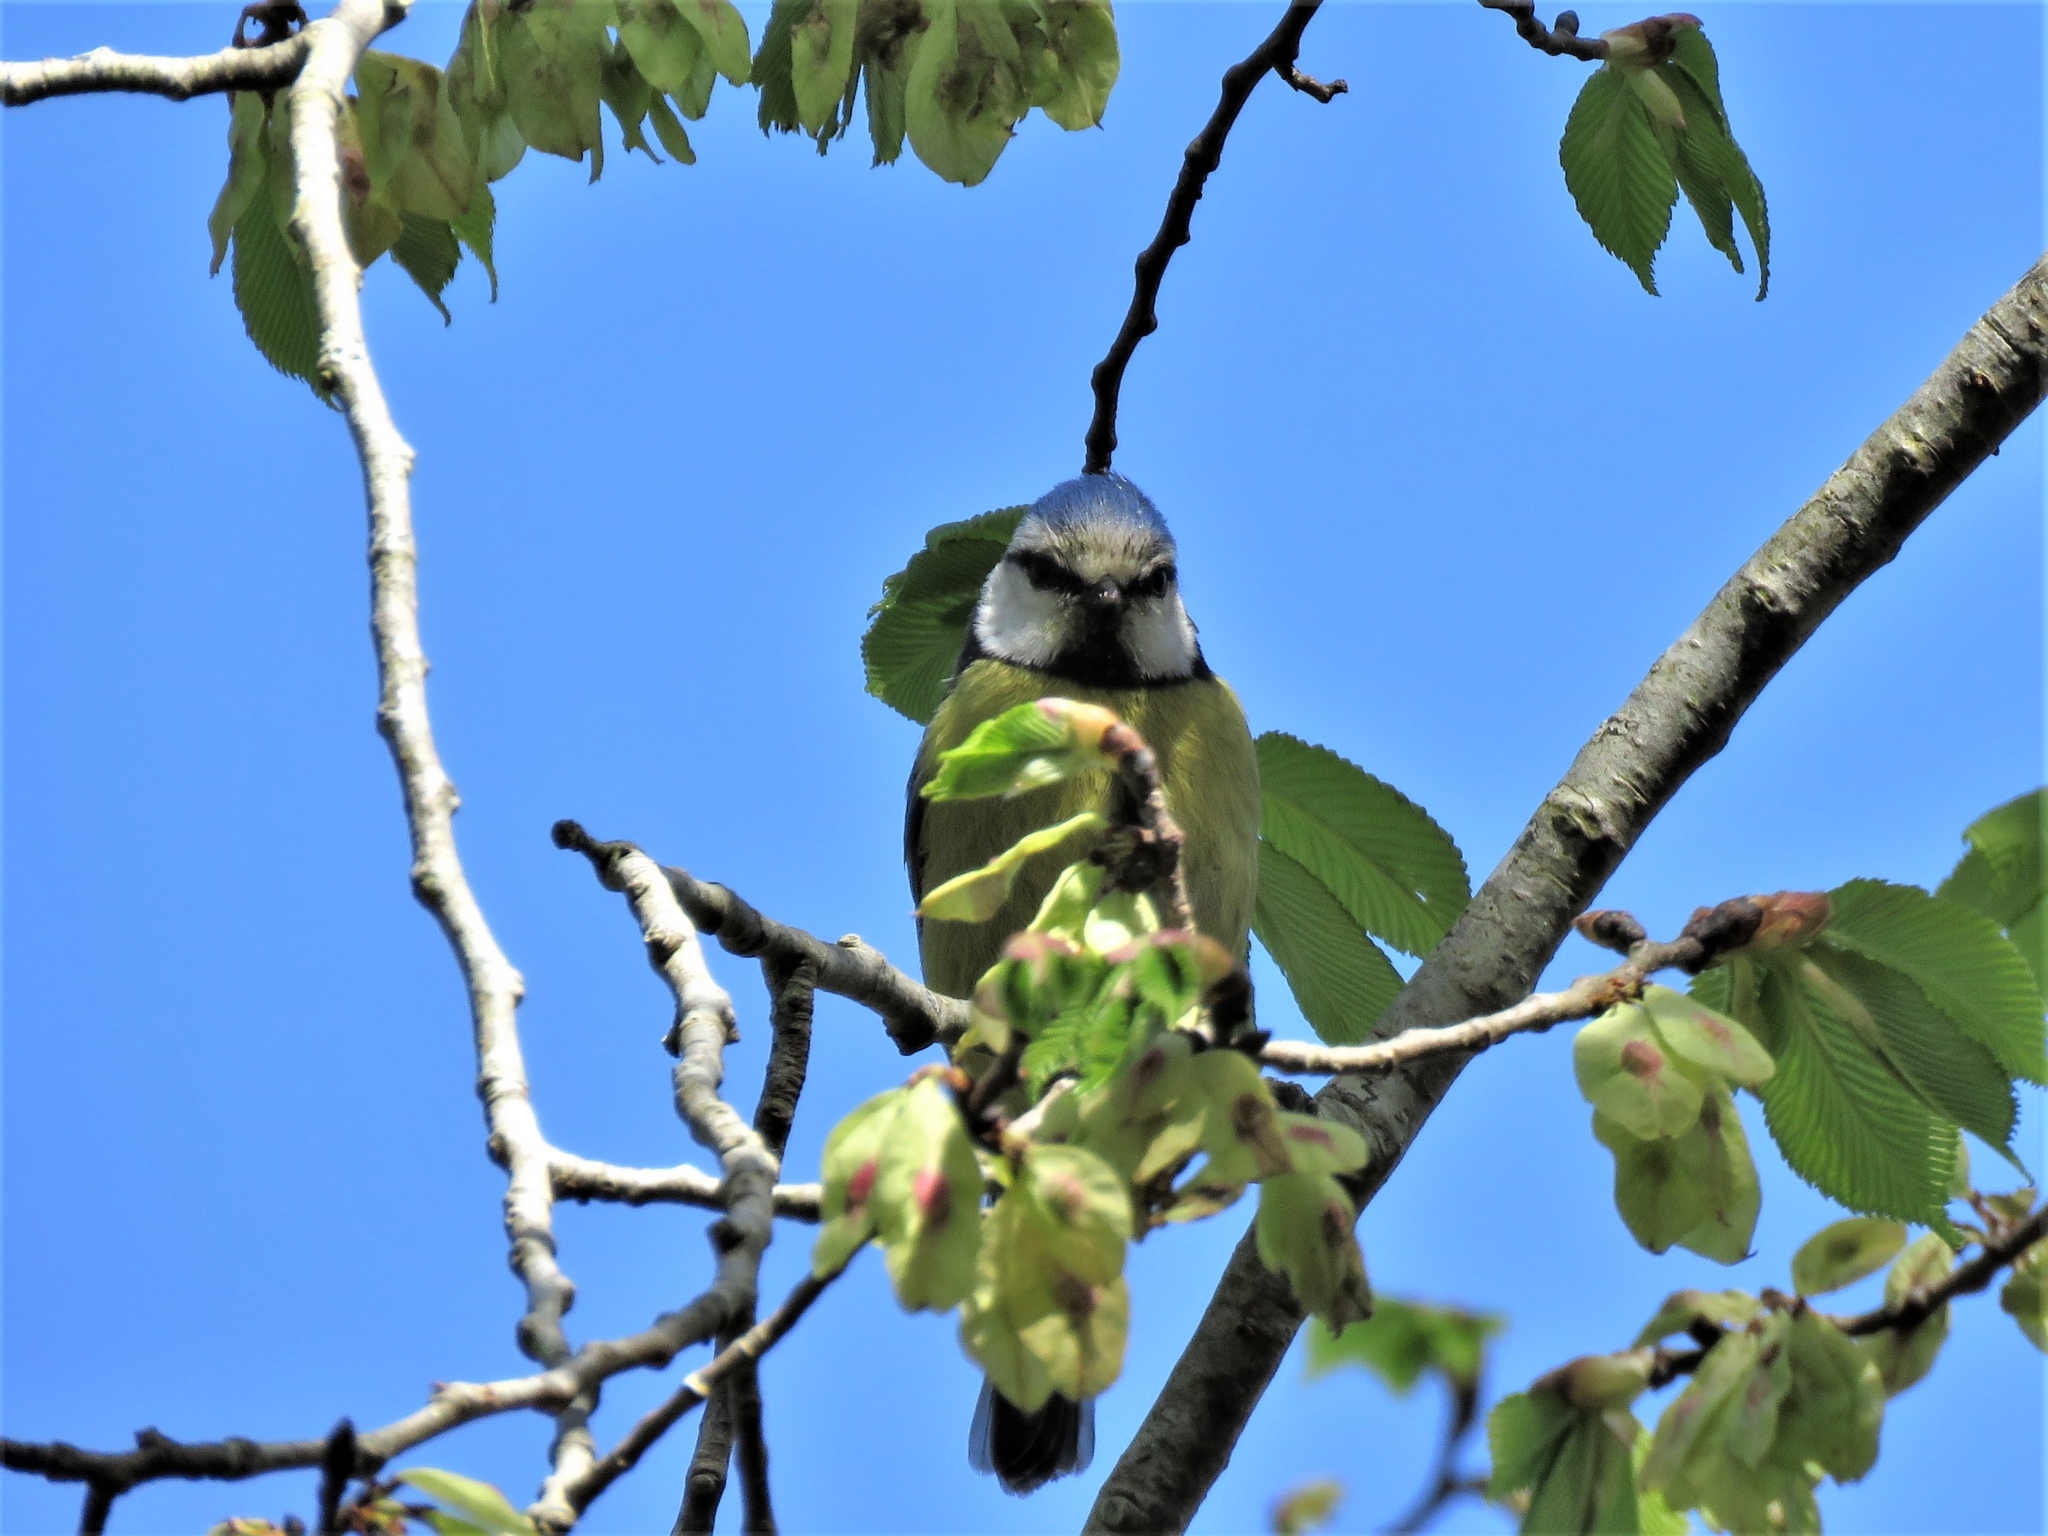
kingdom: Animalia
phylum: Chordata
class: Aves
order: Passeriformes
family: Paridae
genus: Cyanistes
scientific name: Cyanistes caeruleus
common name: Eurasian blue tit
